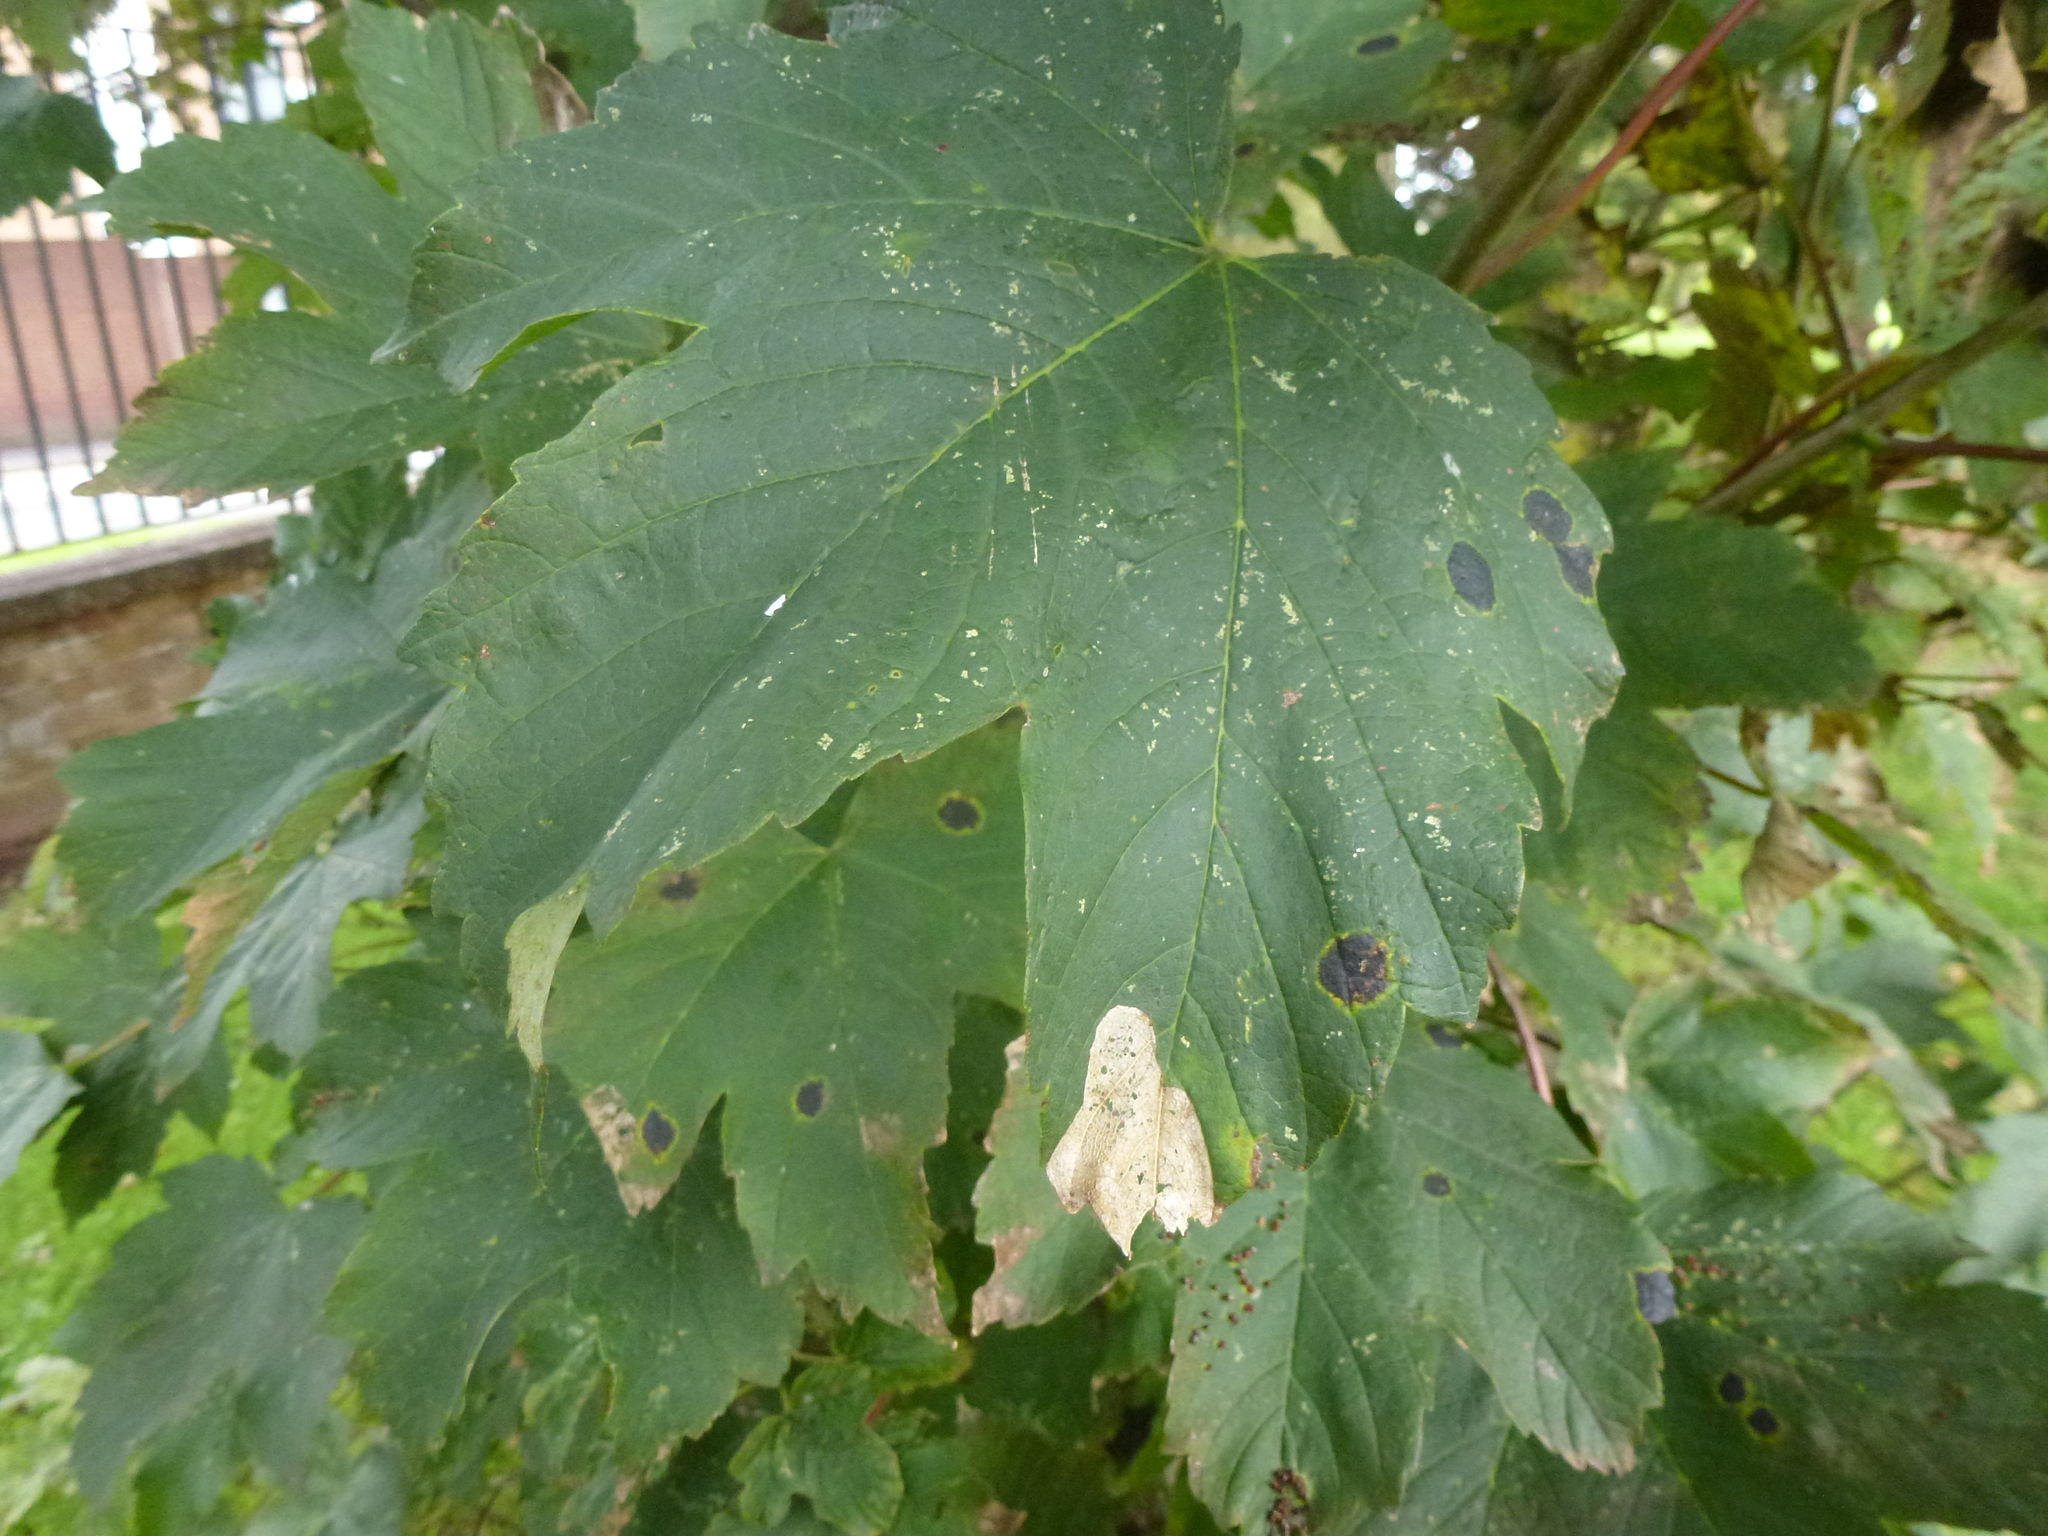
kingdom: Fungi
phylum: Ascomycota
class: Leotiomycetes
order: Rhytismatales
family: Rhytismataceae
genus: Rhytisma
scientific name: Rhytisma acerinum
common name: European tar spot
